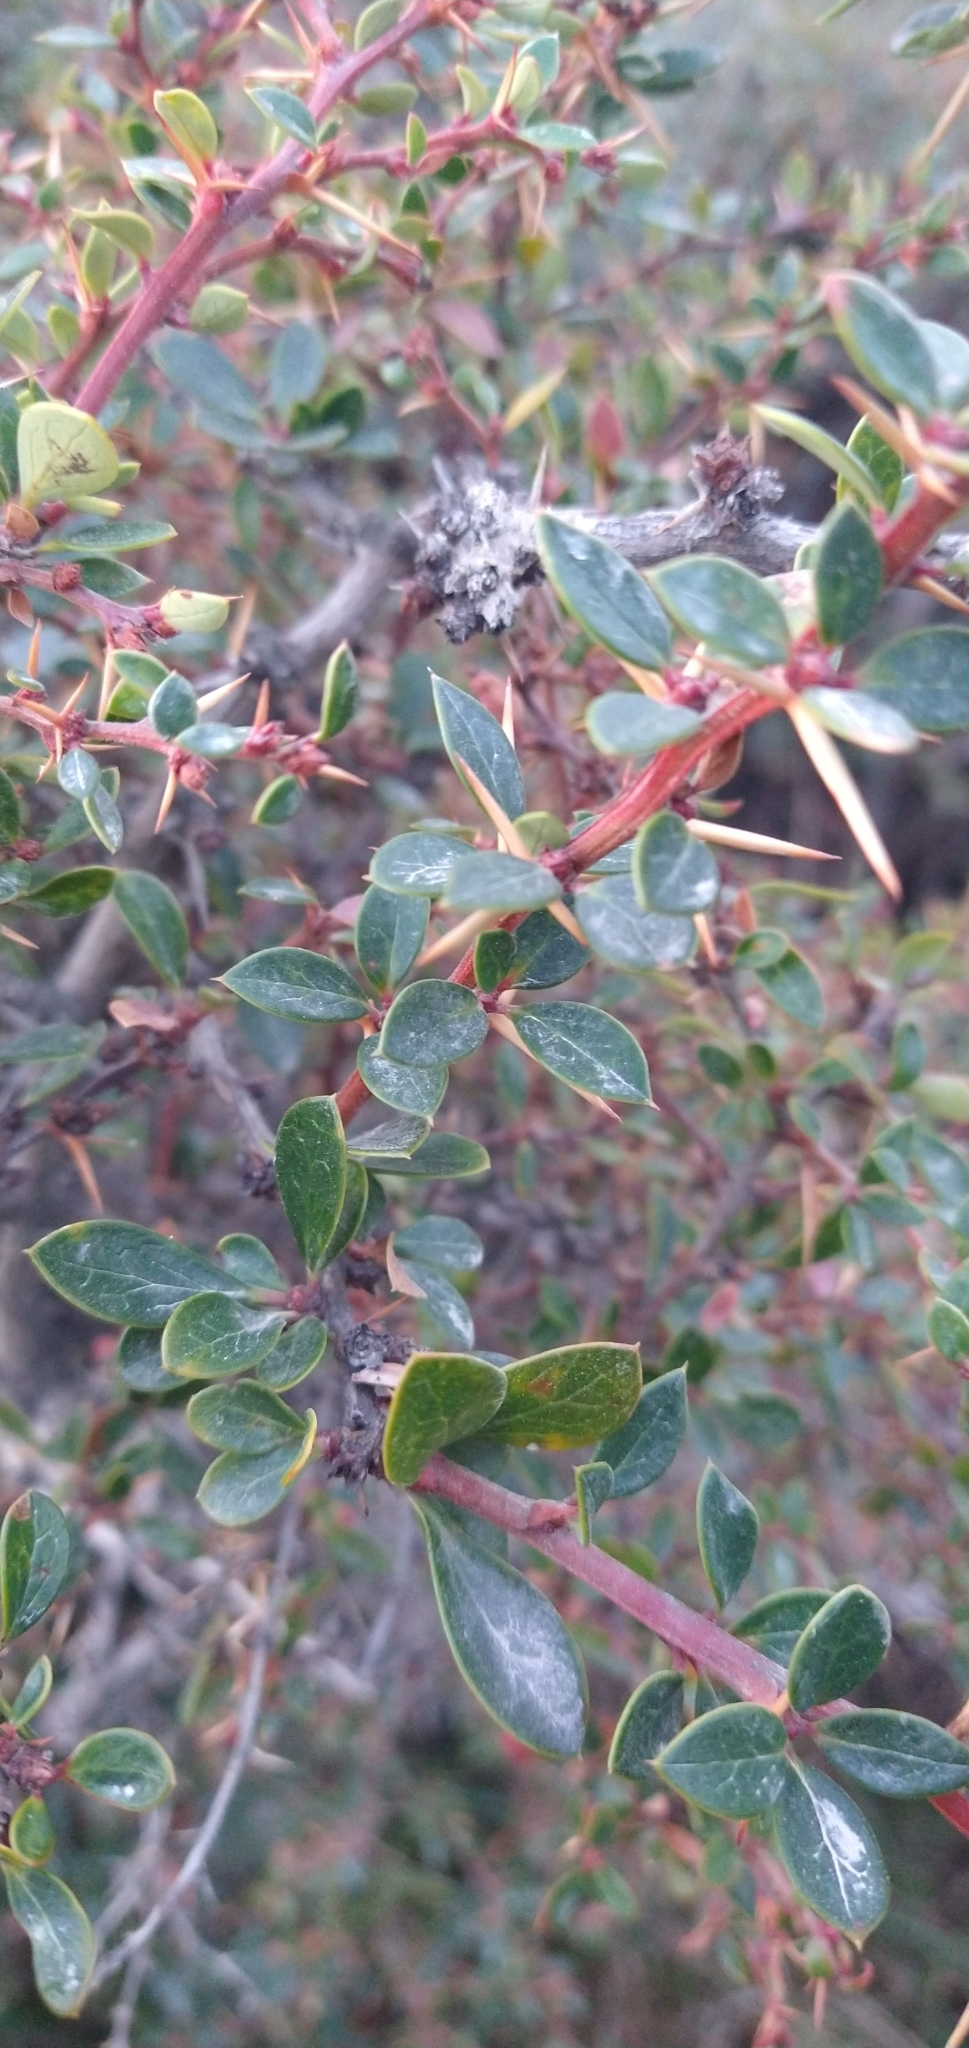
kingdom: Plantae
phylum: Tracheophyta
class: Magnoliopsida
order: Ranunculales
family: Berberidaceae
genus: Berberis
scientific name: Berberis microphylla
